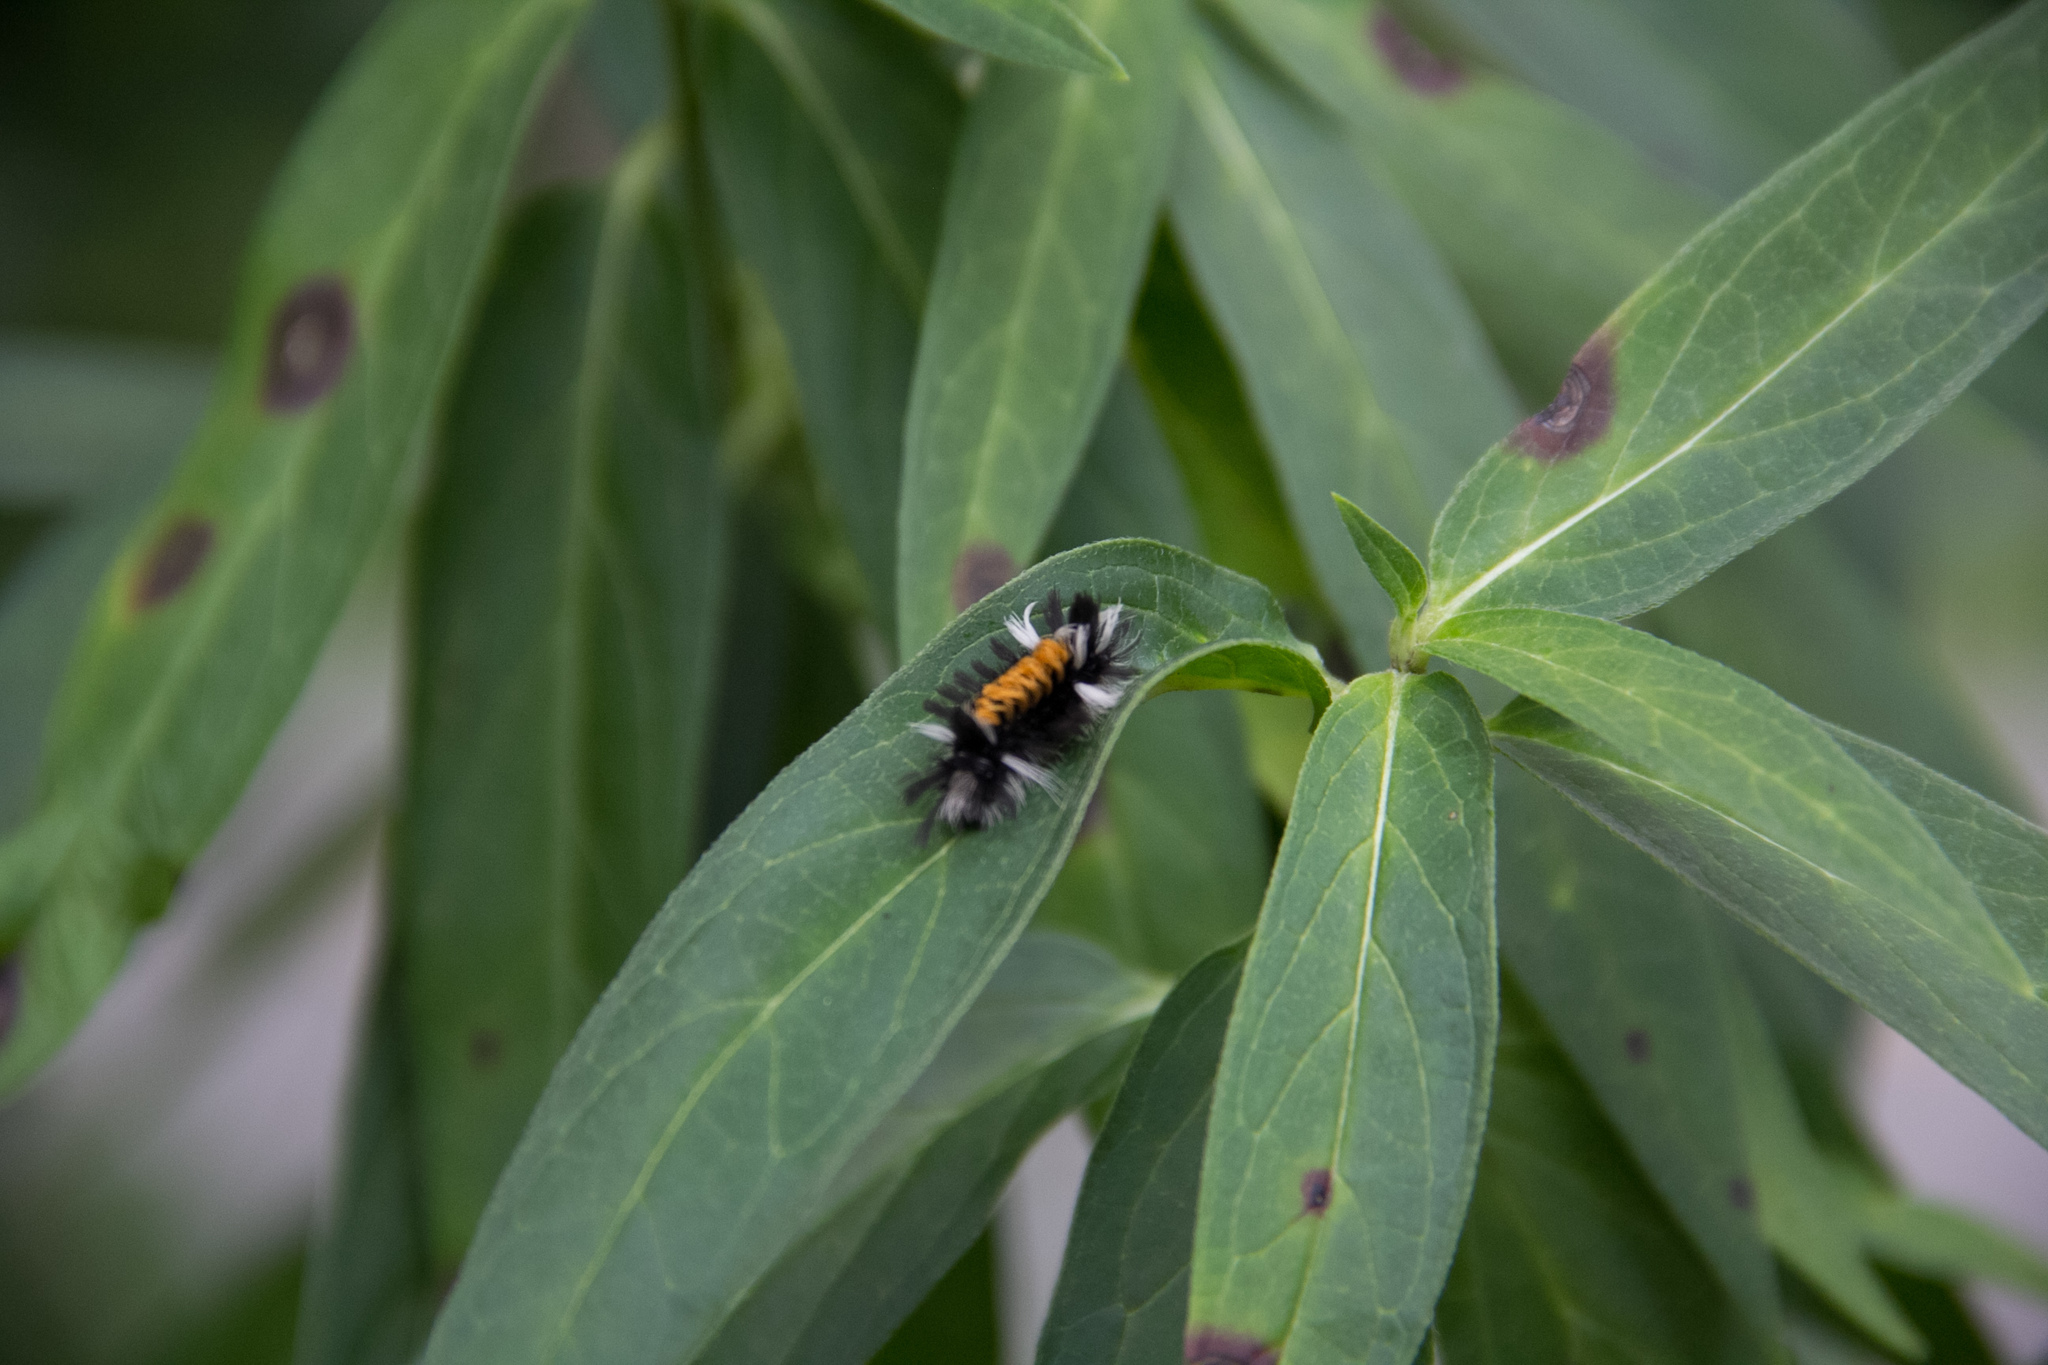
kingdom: Animalia
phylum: Arthropoda
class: Insecta
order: Lepidoptera
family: Erebidae
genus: Euchaetes
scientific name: Euchaetes egle
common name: Milkweed tussock moth
